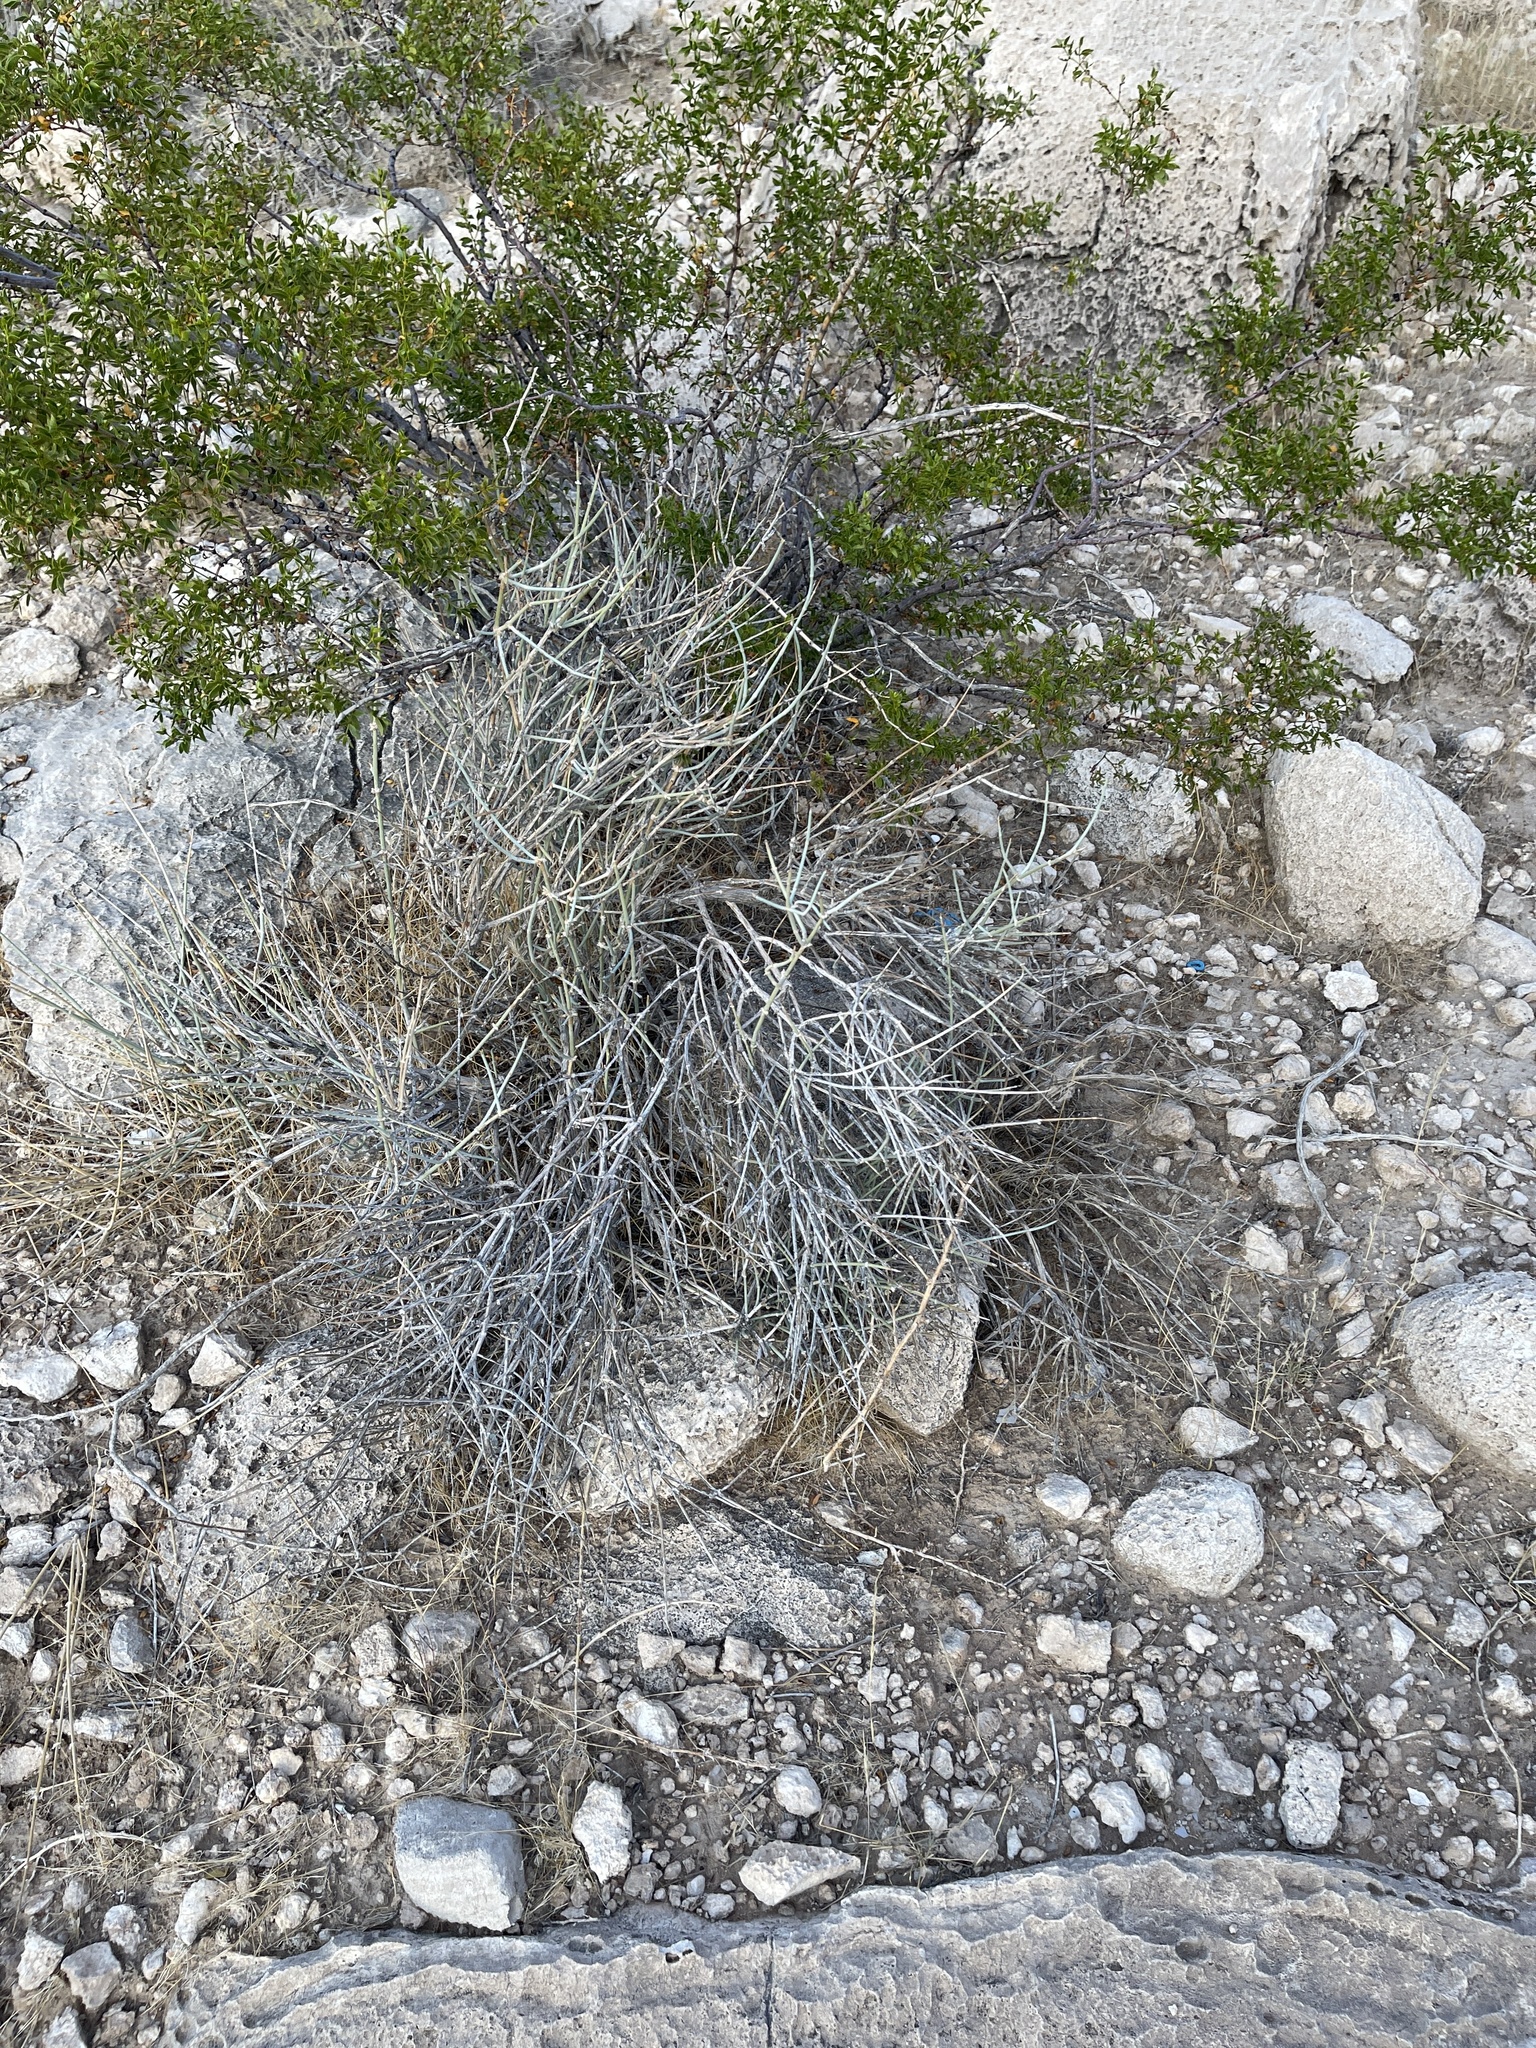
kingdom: Plantae
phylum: Tracheophyta
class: Gnetopsida
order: Ephedrales
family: Ephedraceae
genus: Ephedra
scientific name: Ephedra nevadensis
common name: Gray ephedra
